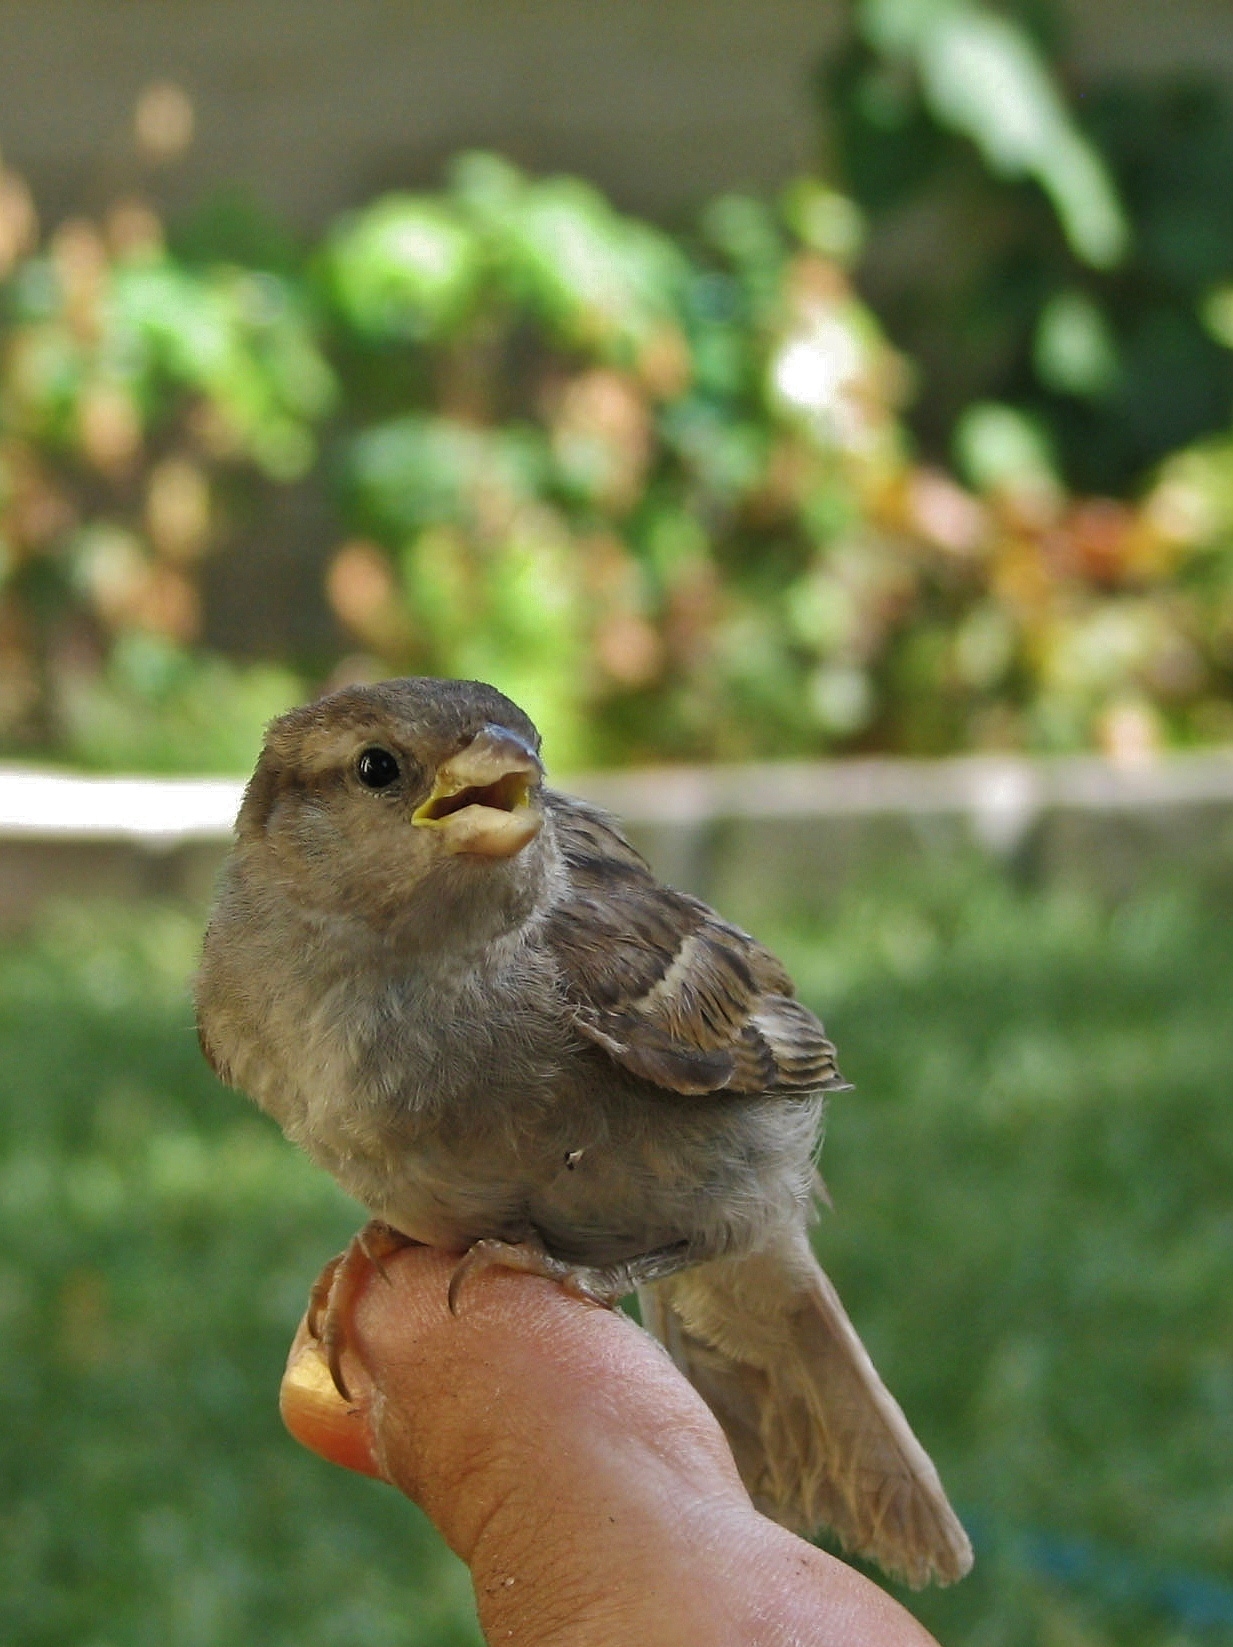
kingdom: Animalia
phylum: Chordata
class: Aves
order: Passeriformes
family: Passeridae
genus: Passer
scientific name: Passer domesticus
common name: House sparrow
